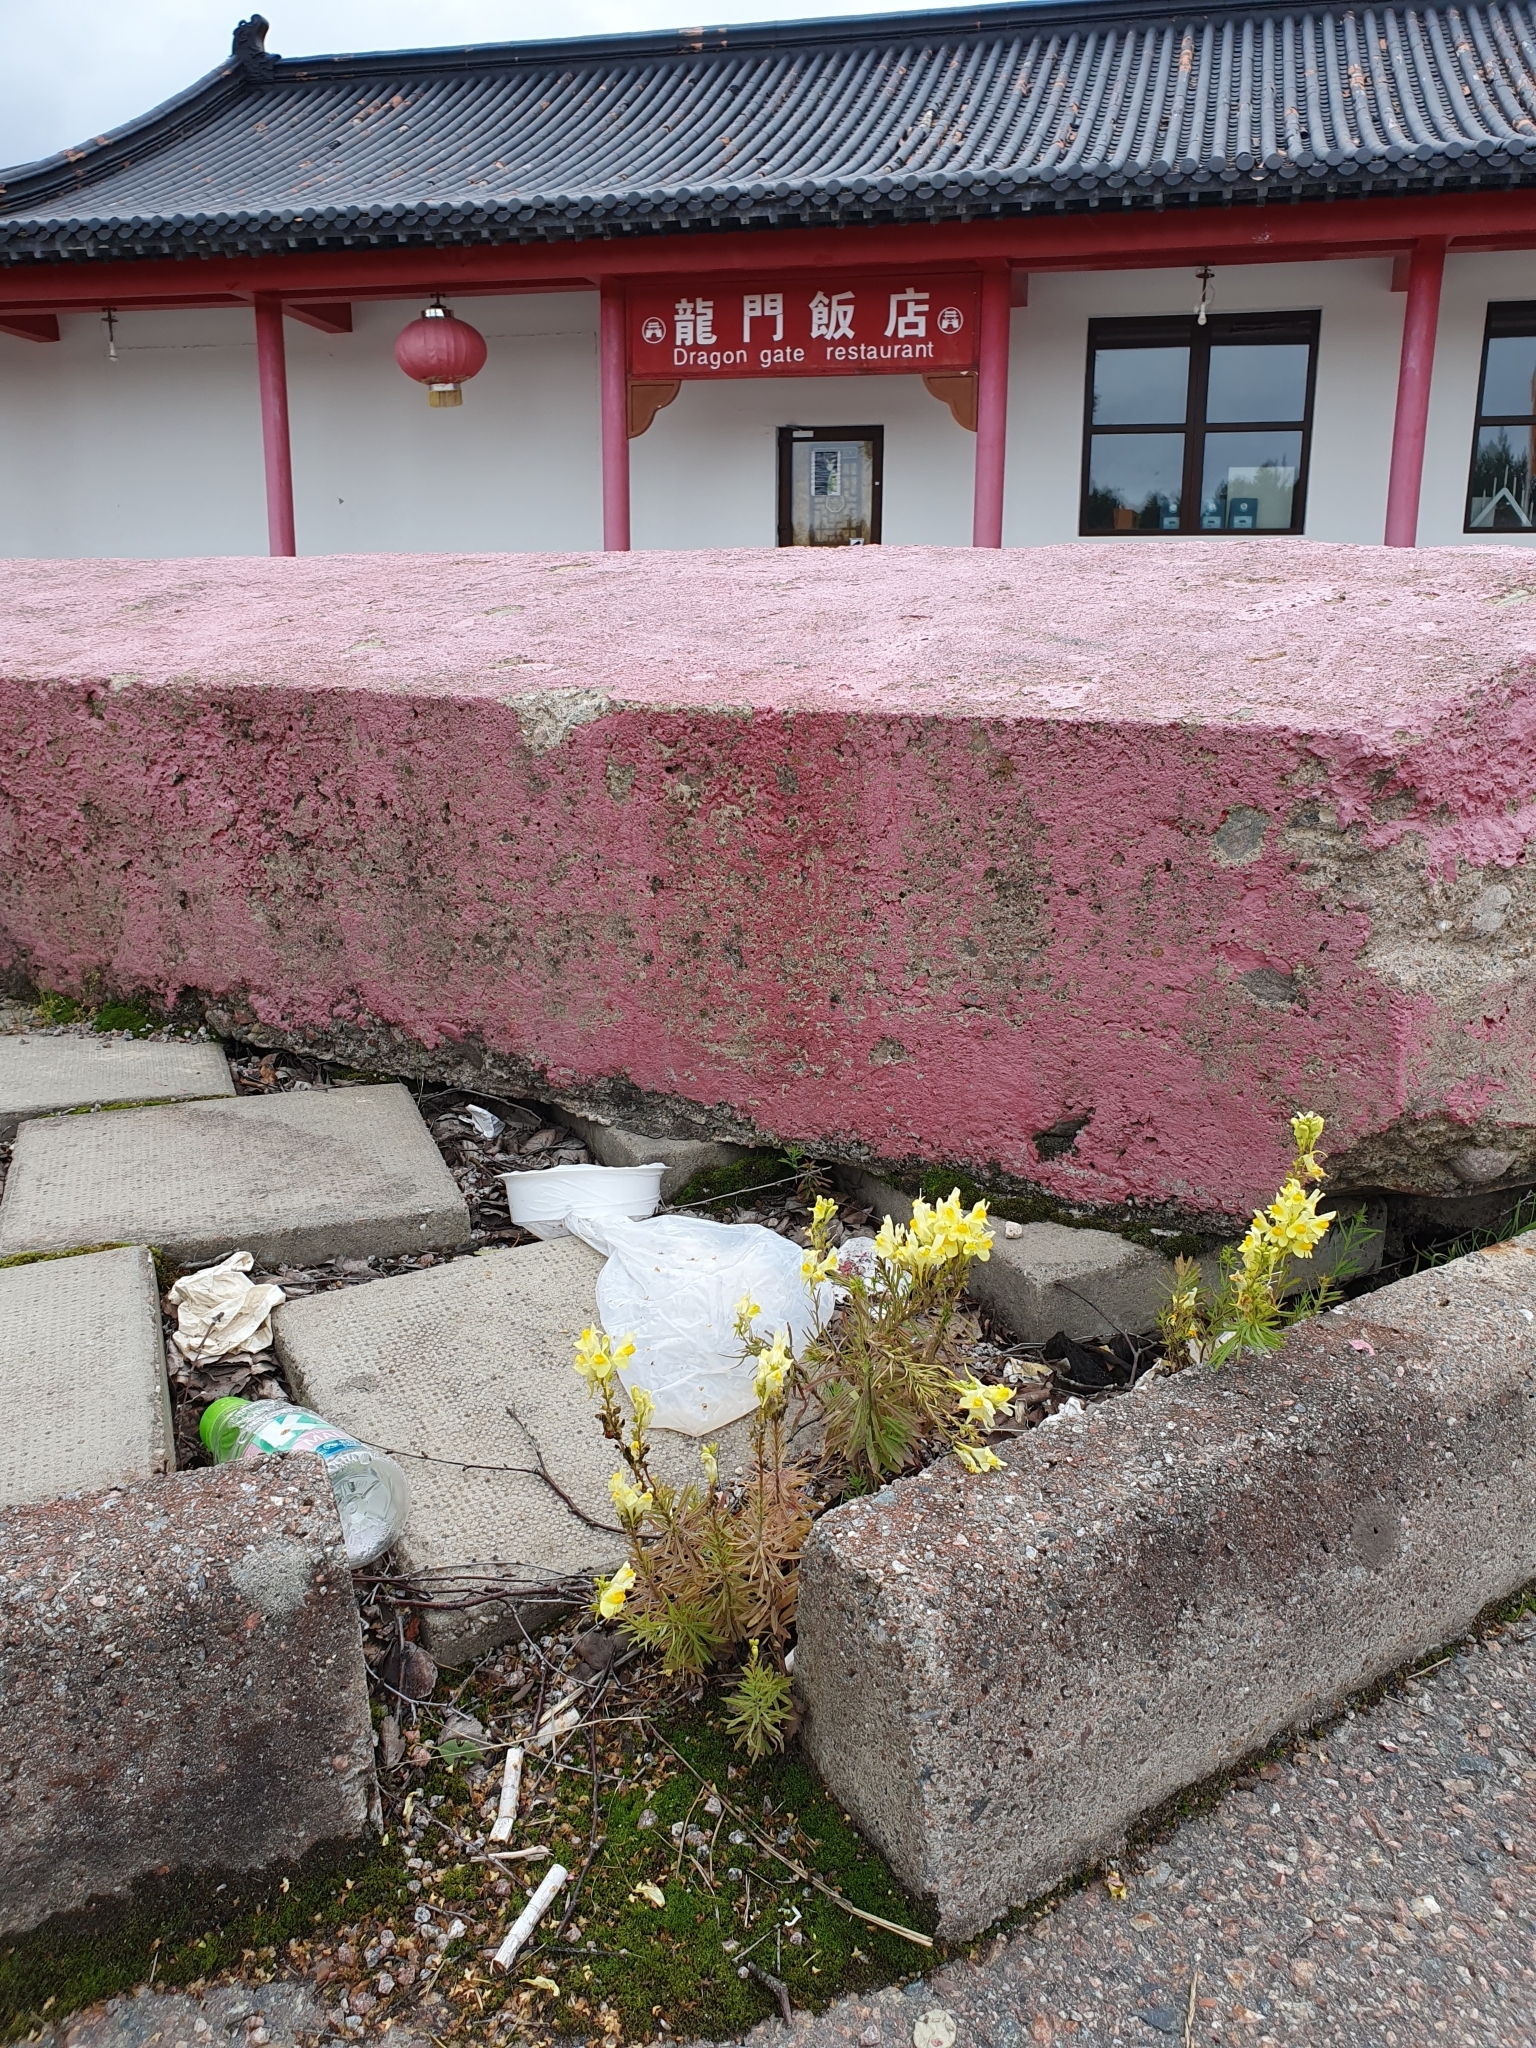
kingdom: Plantae
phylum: Tracheophyta
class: Magnoliopsida
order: Lamiales
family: Plantaginaceae
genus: Linaria
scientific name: Linaria vulgaris
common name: Butter and eggs
